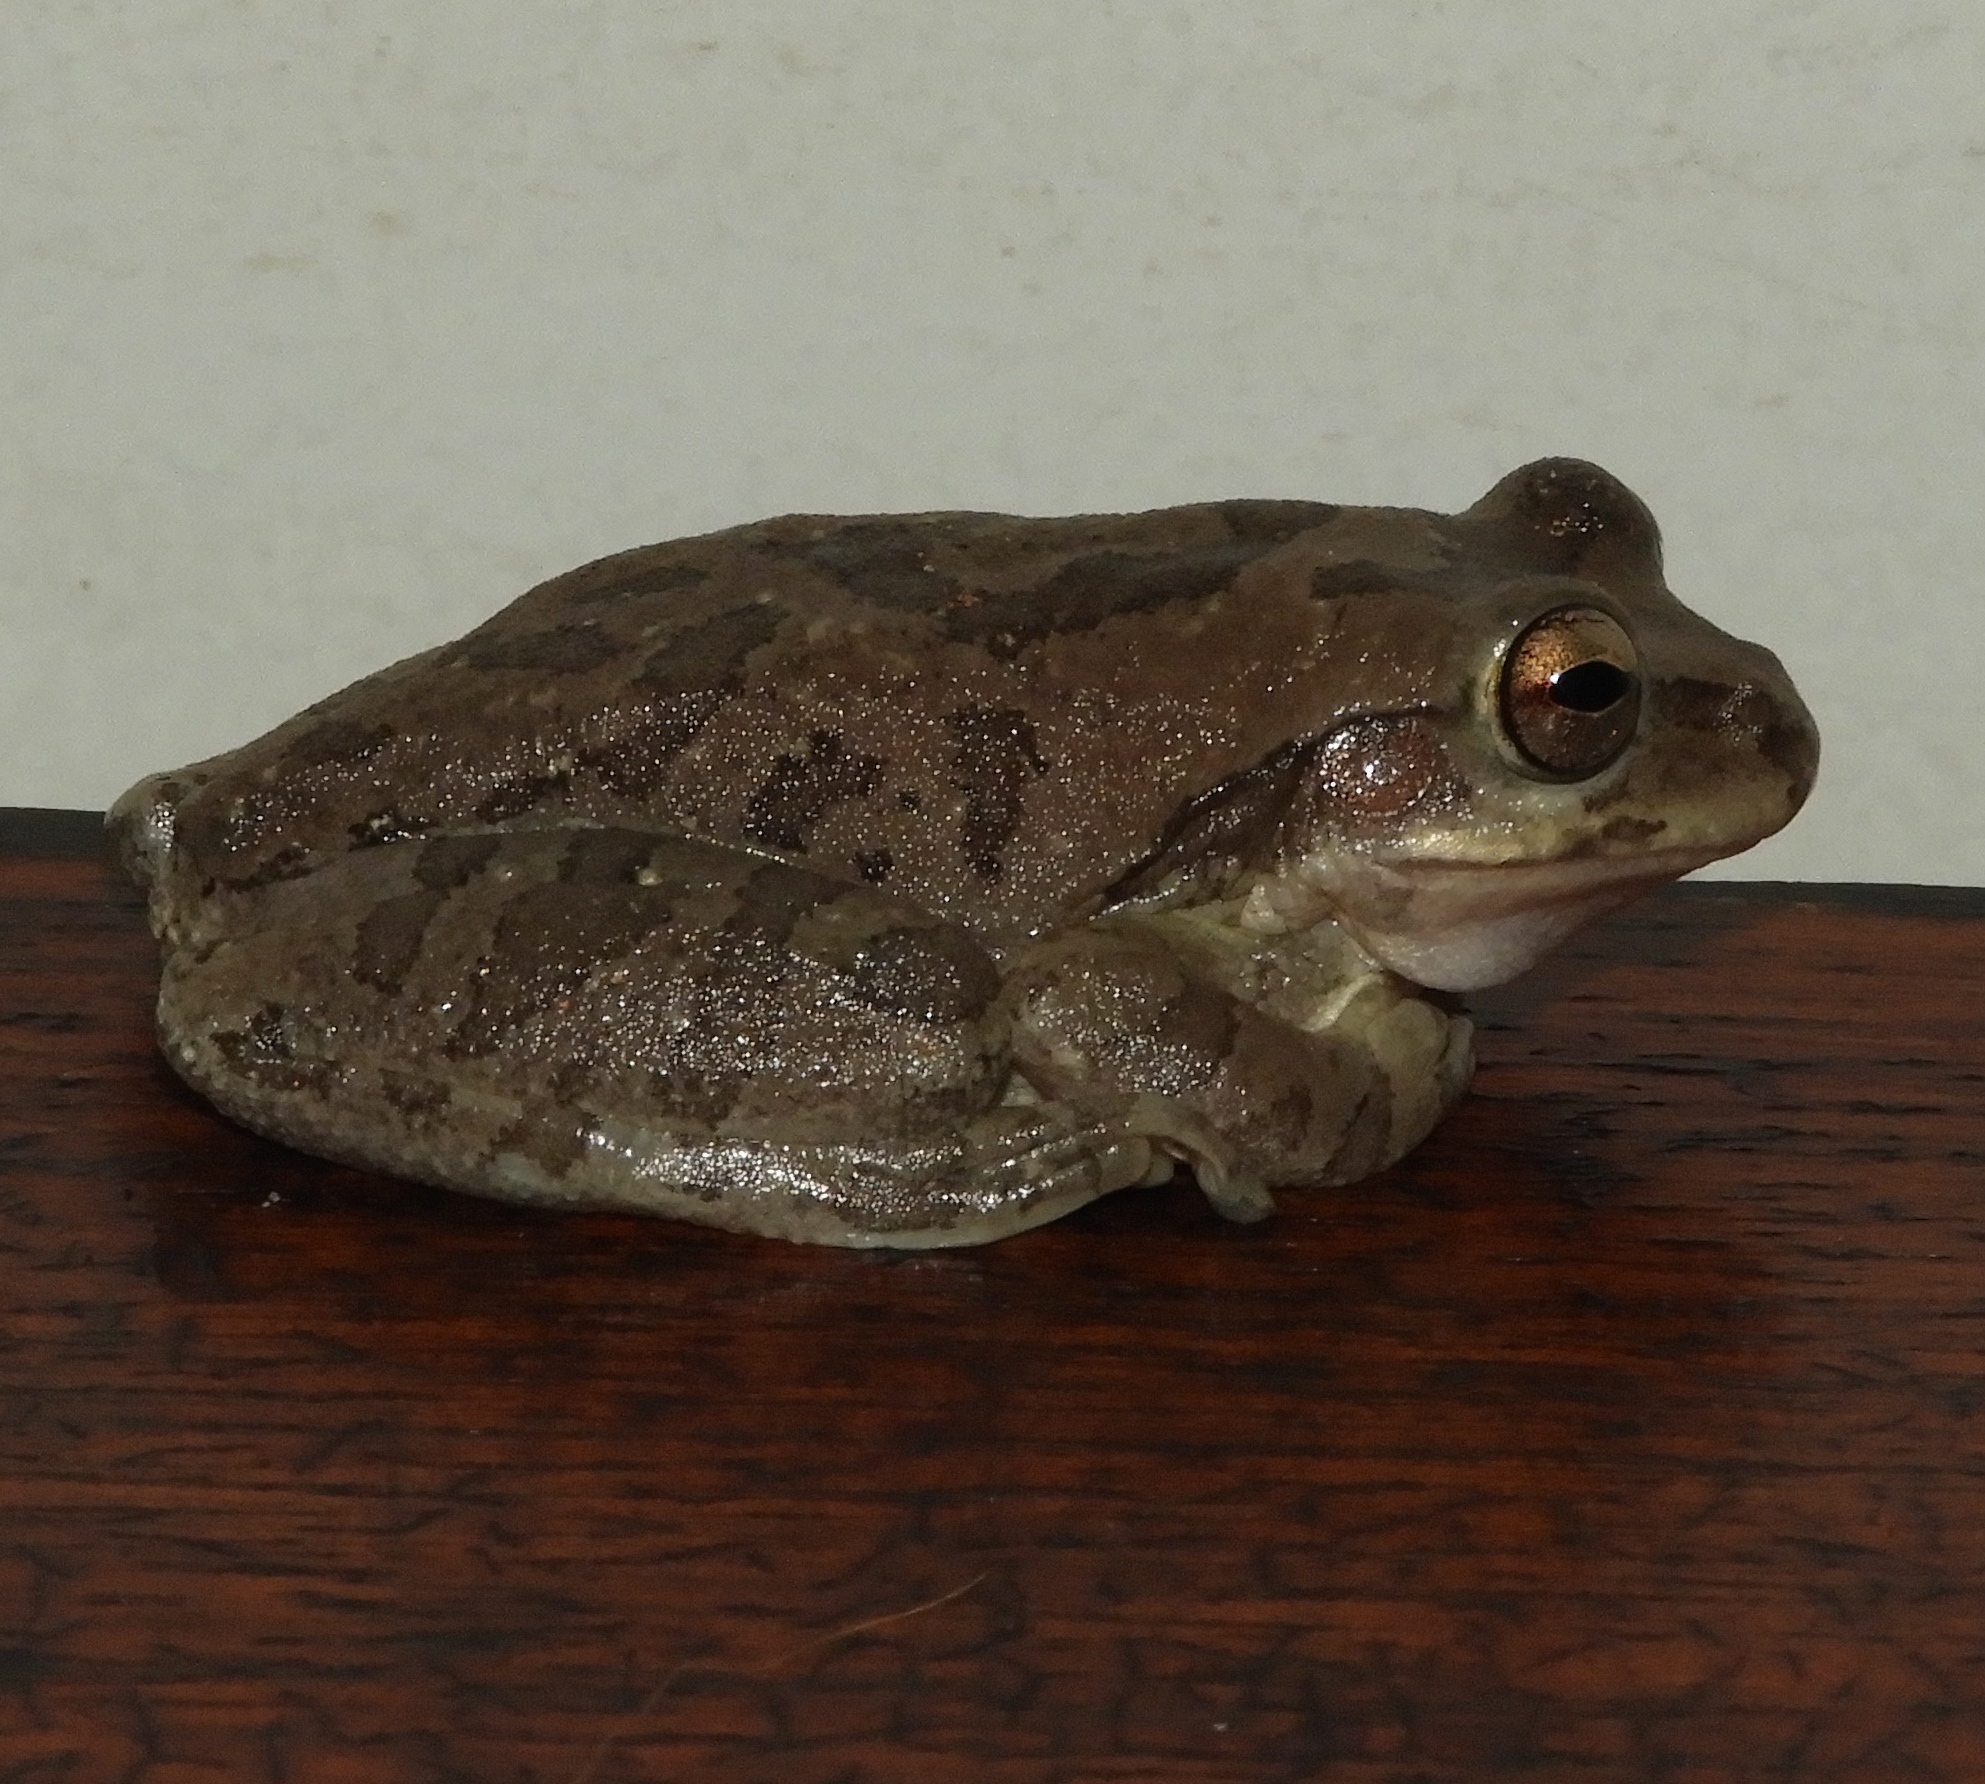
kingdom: Animalia
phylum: Chordata
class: Amphibia
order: Anura
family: Hylidae
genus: Smilisca
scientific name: Smilisca baudinii
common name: Mexican smilisca
